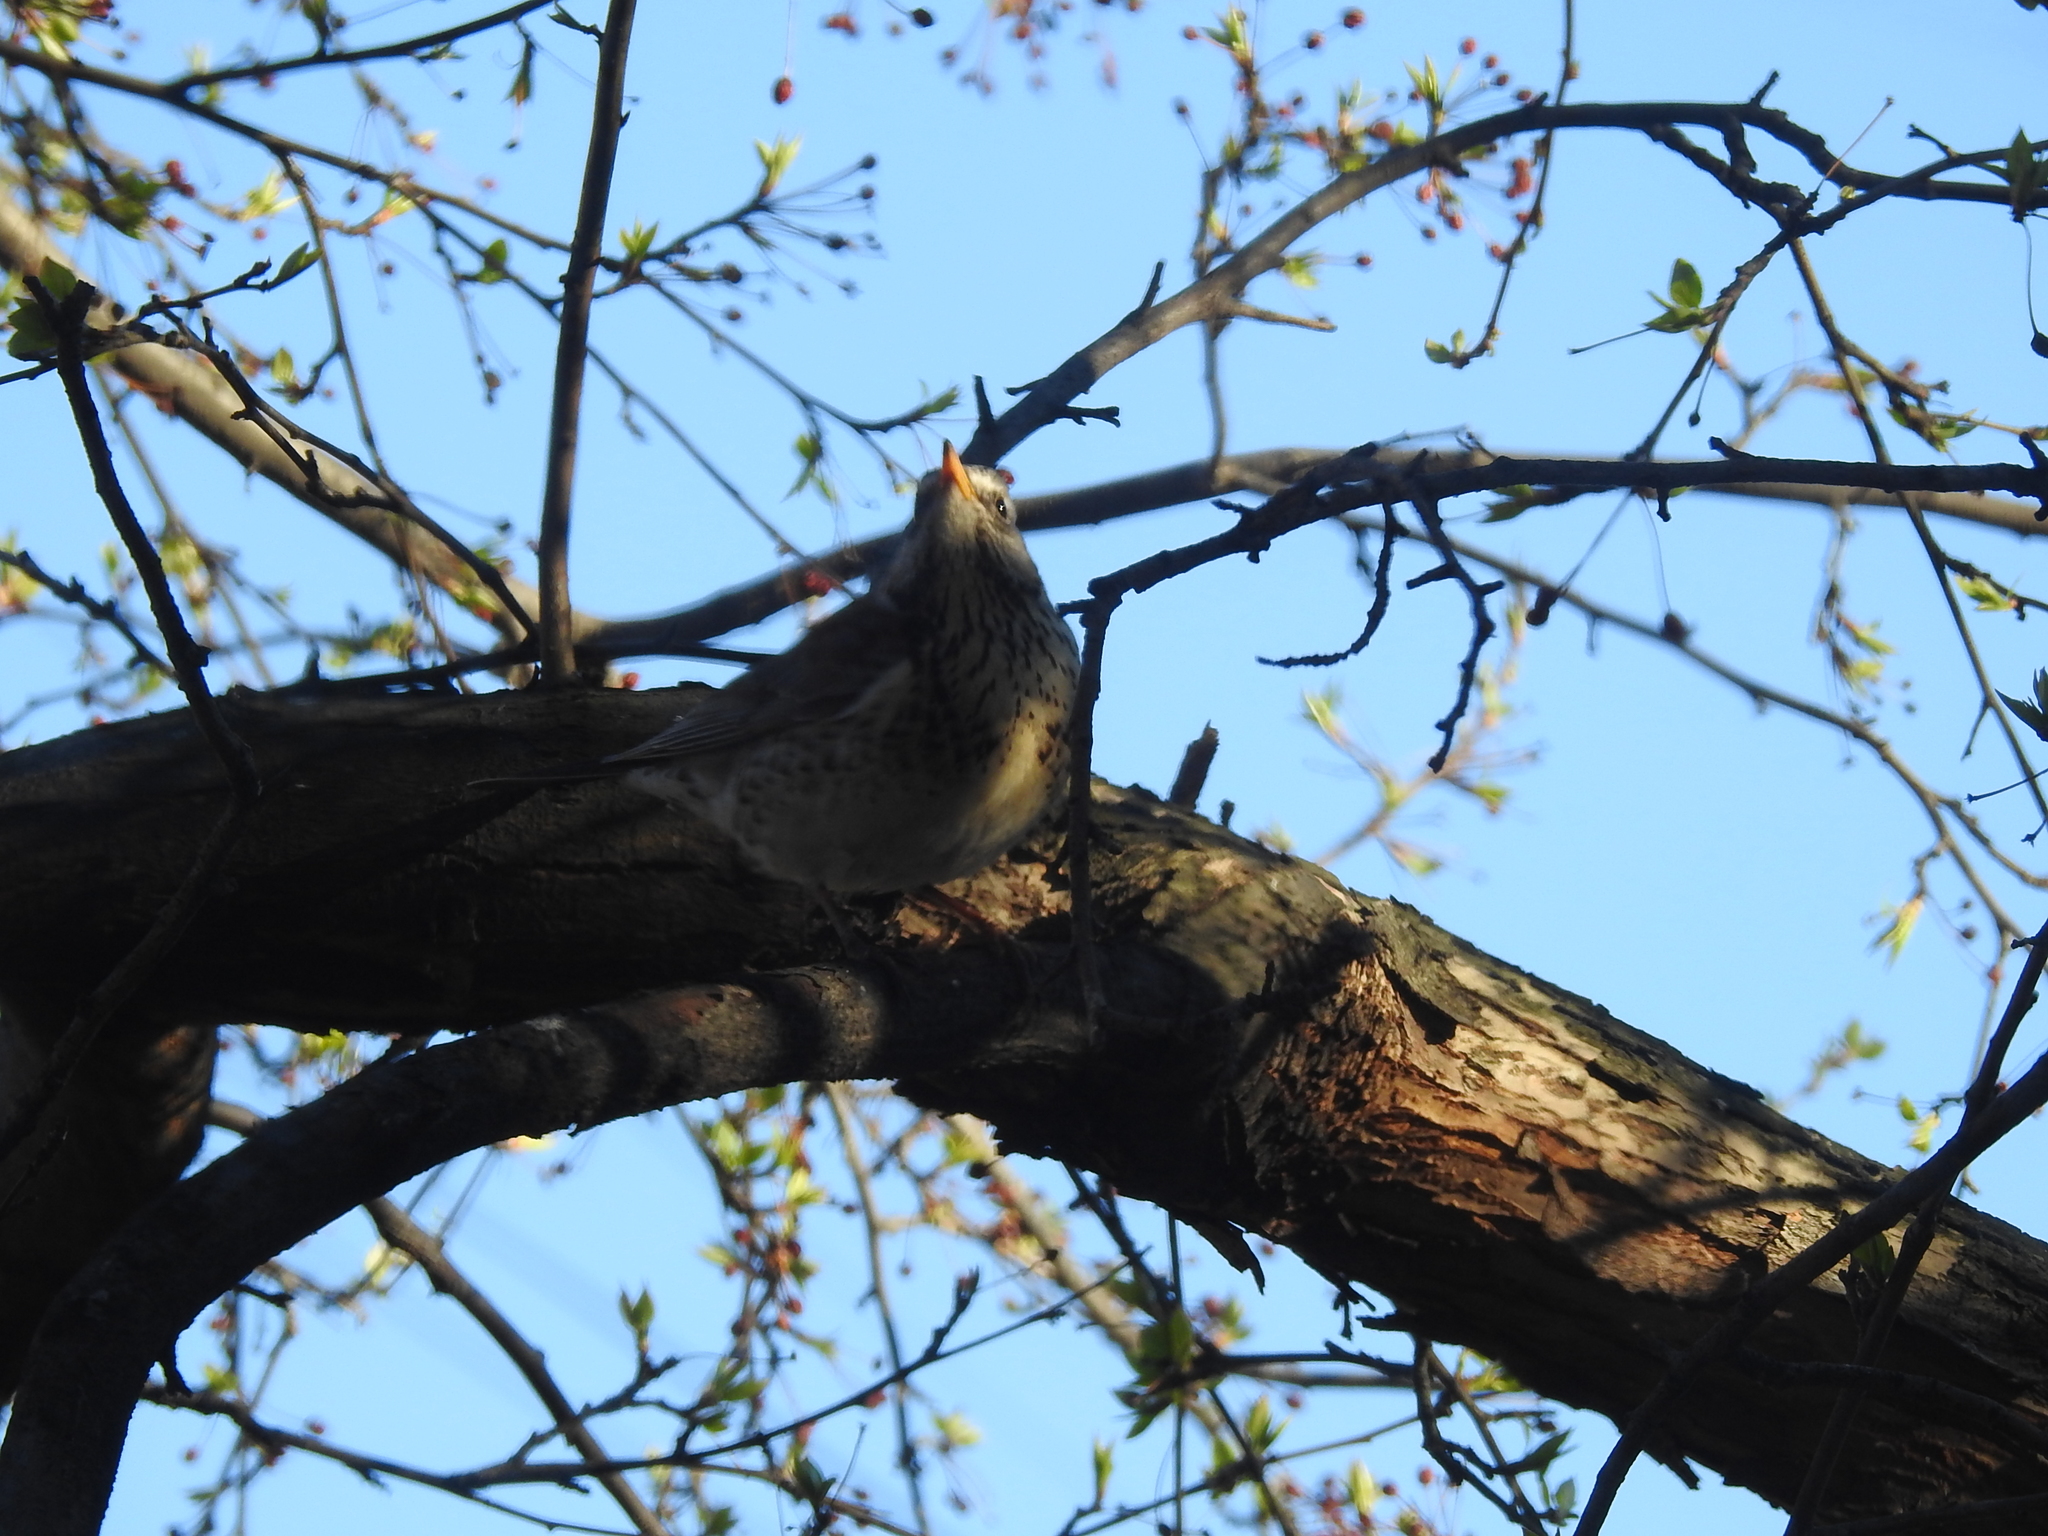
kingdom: Animalia
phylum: Chordata
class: Aves
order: Passeriformes
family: Turdidae
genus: Turdus
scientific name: Turdus pilaris
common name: Fieldfare
